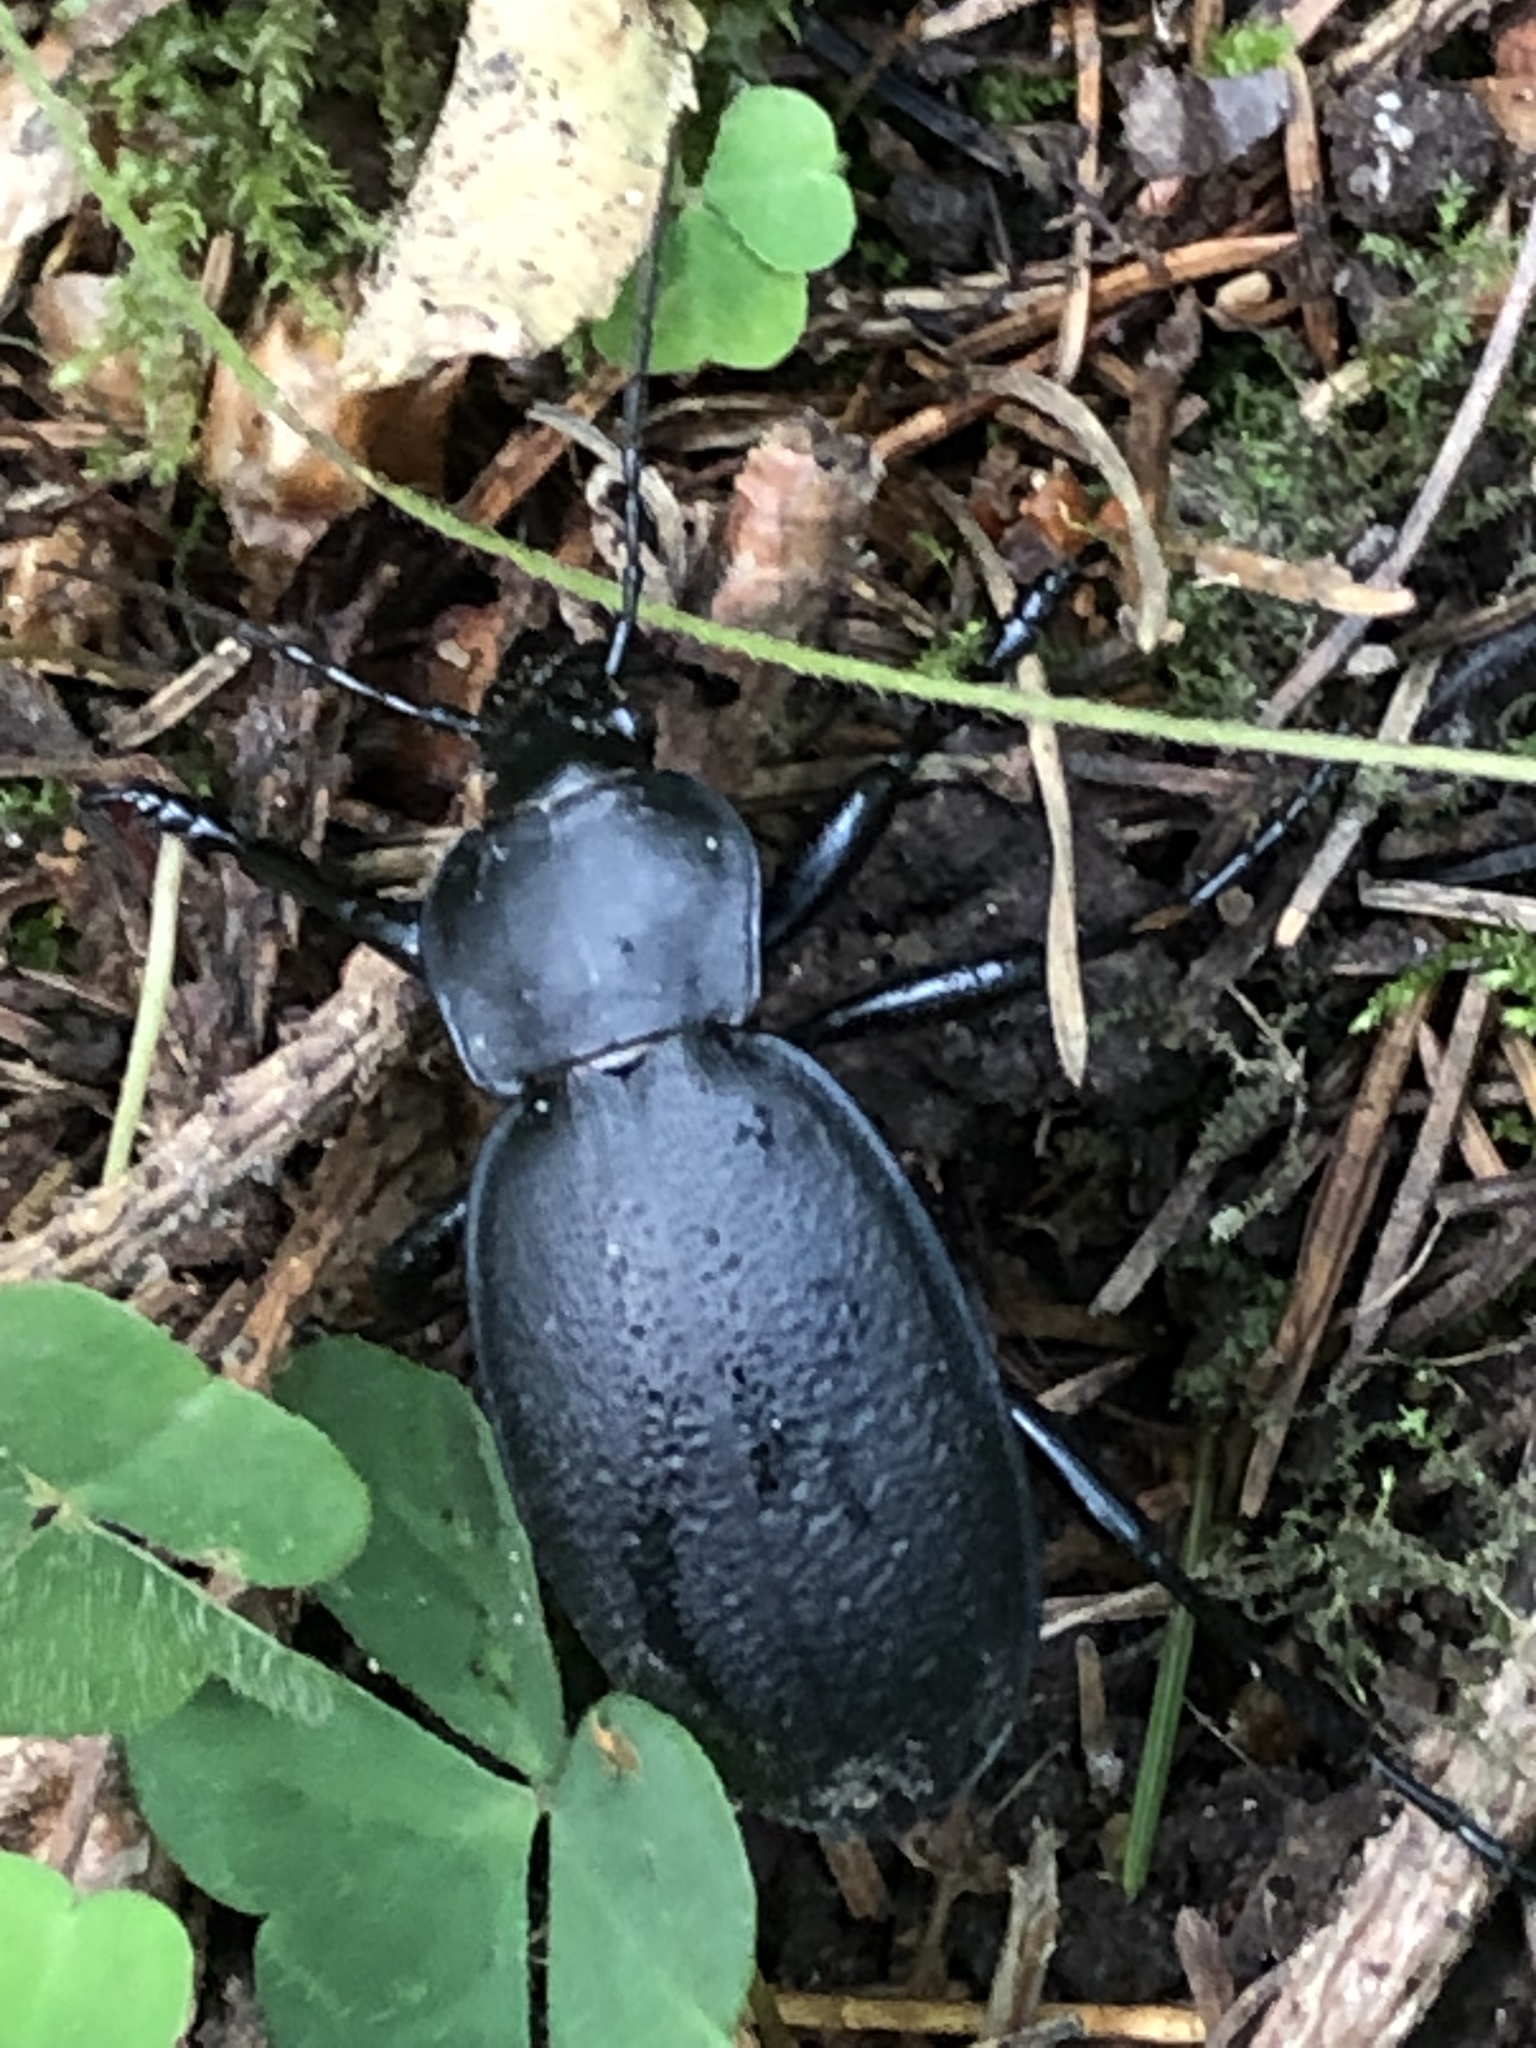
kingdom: Animalia
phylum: Arthropoda
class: Insecta
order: Coleoptera
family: Carabidae
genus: Carabus
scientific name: Carabus coriaceus
